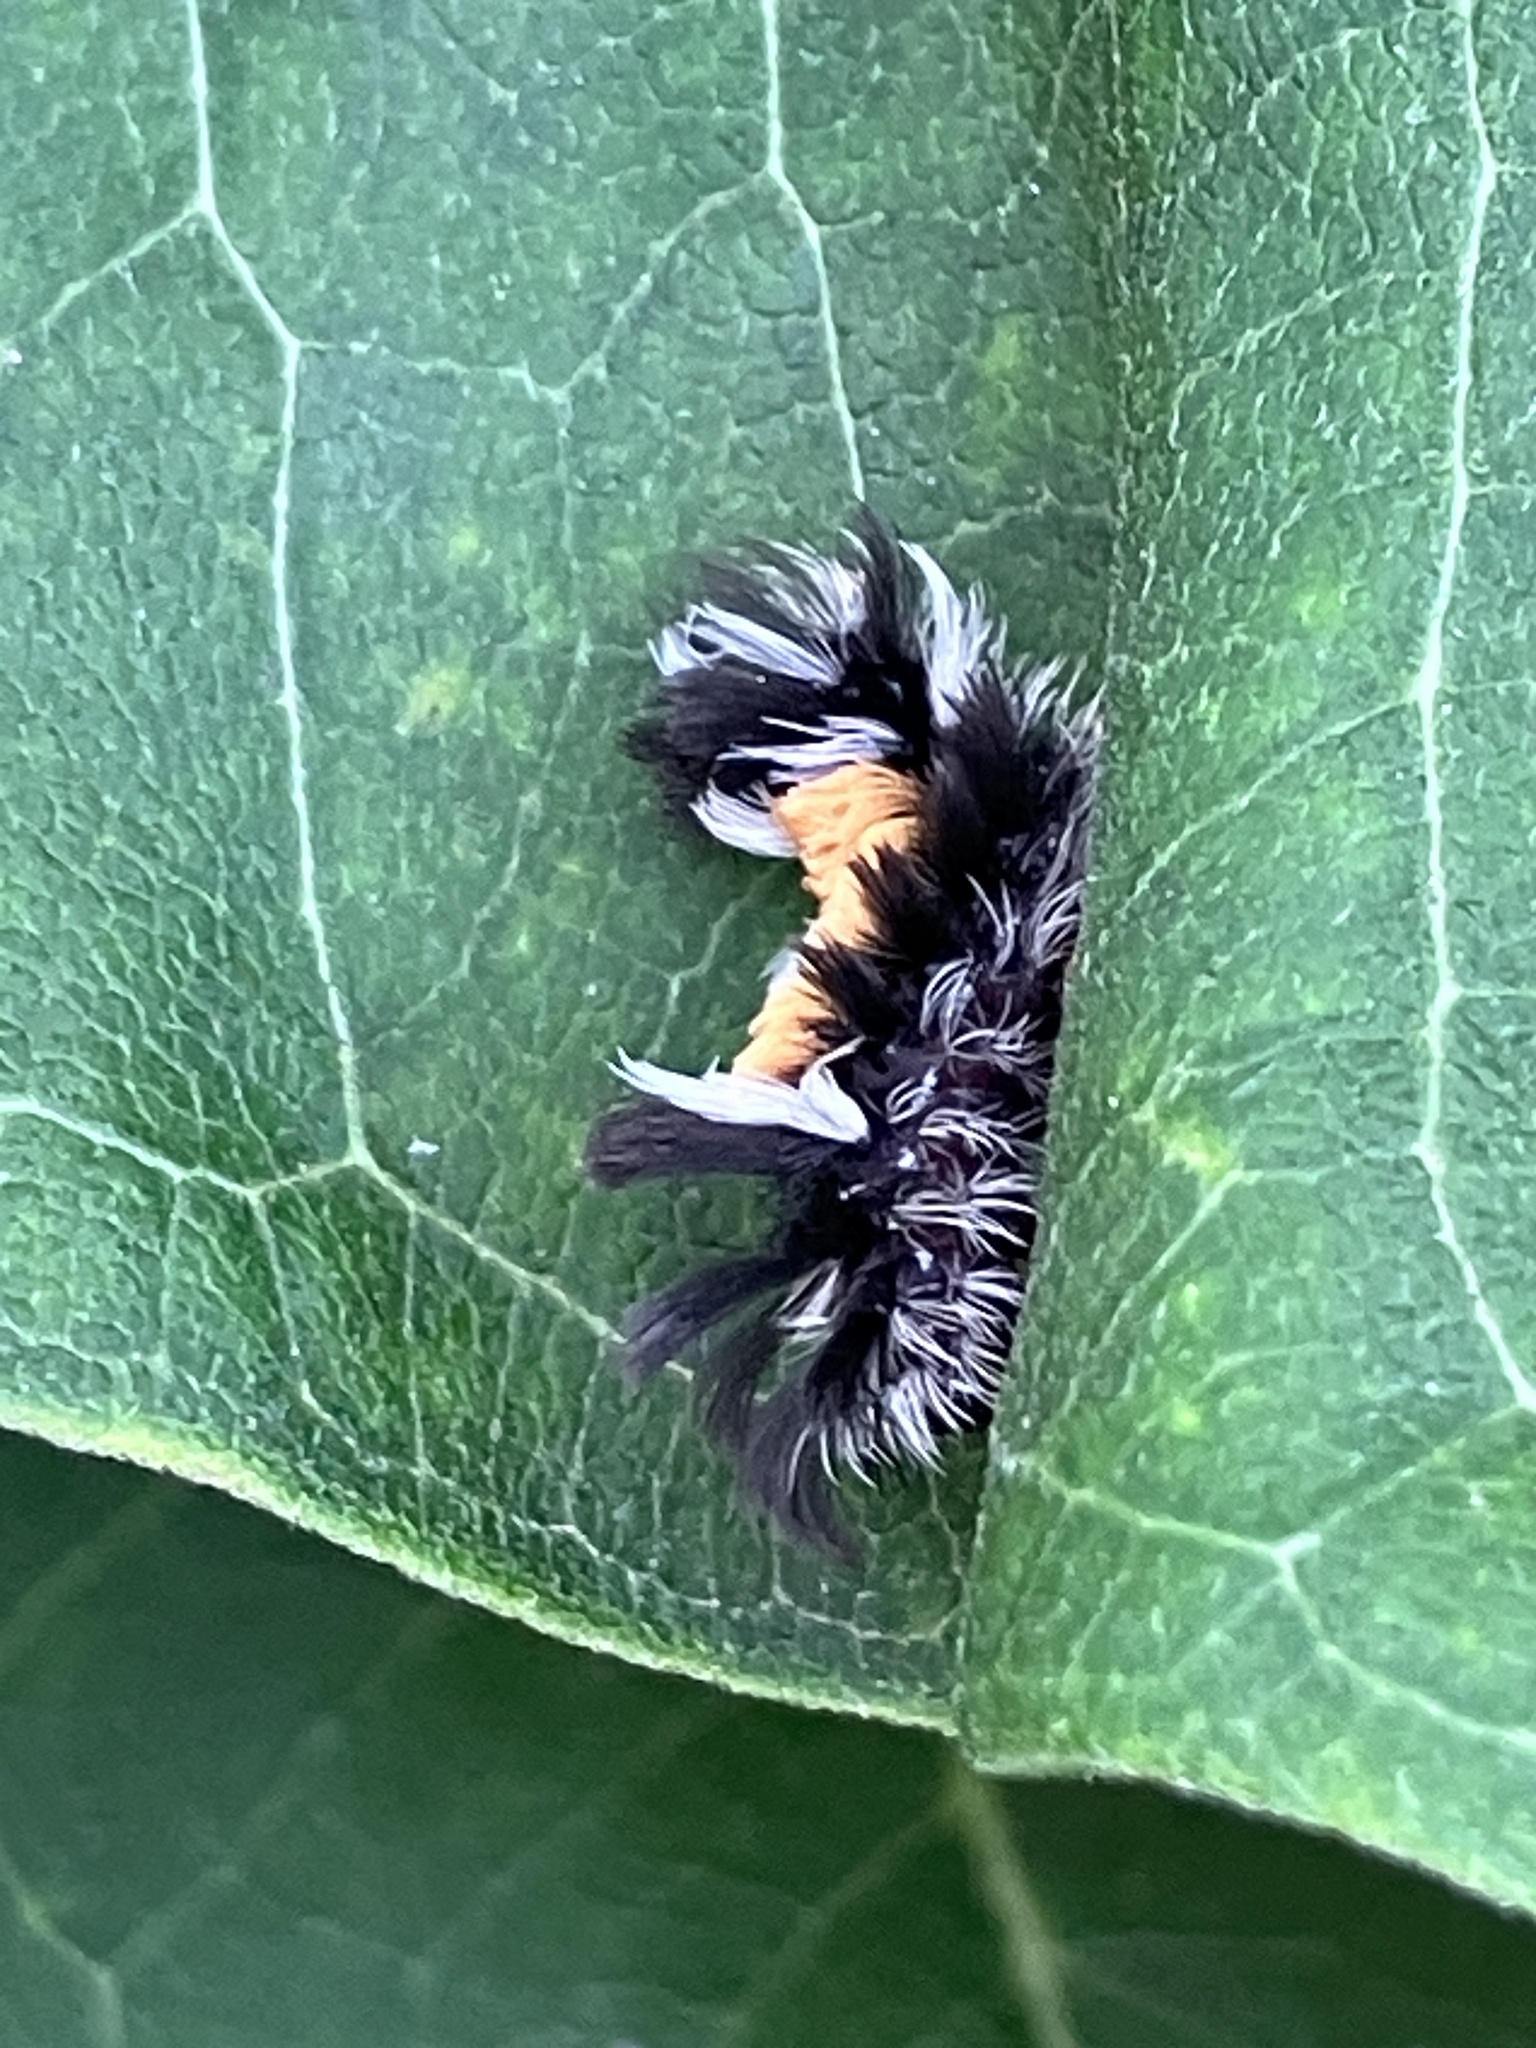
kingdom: Animalia
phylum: Arthropoda
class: Insecta
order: Lepidoptera
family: Erebidae
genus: Euchaetes
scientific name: Euchaetes egle
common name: Milkweed tussock moth
